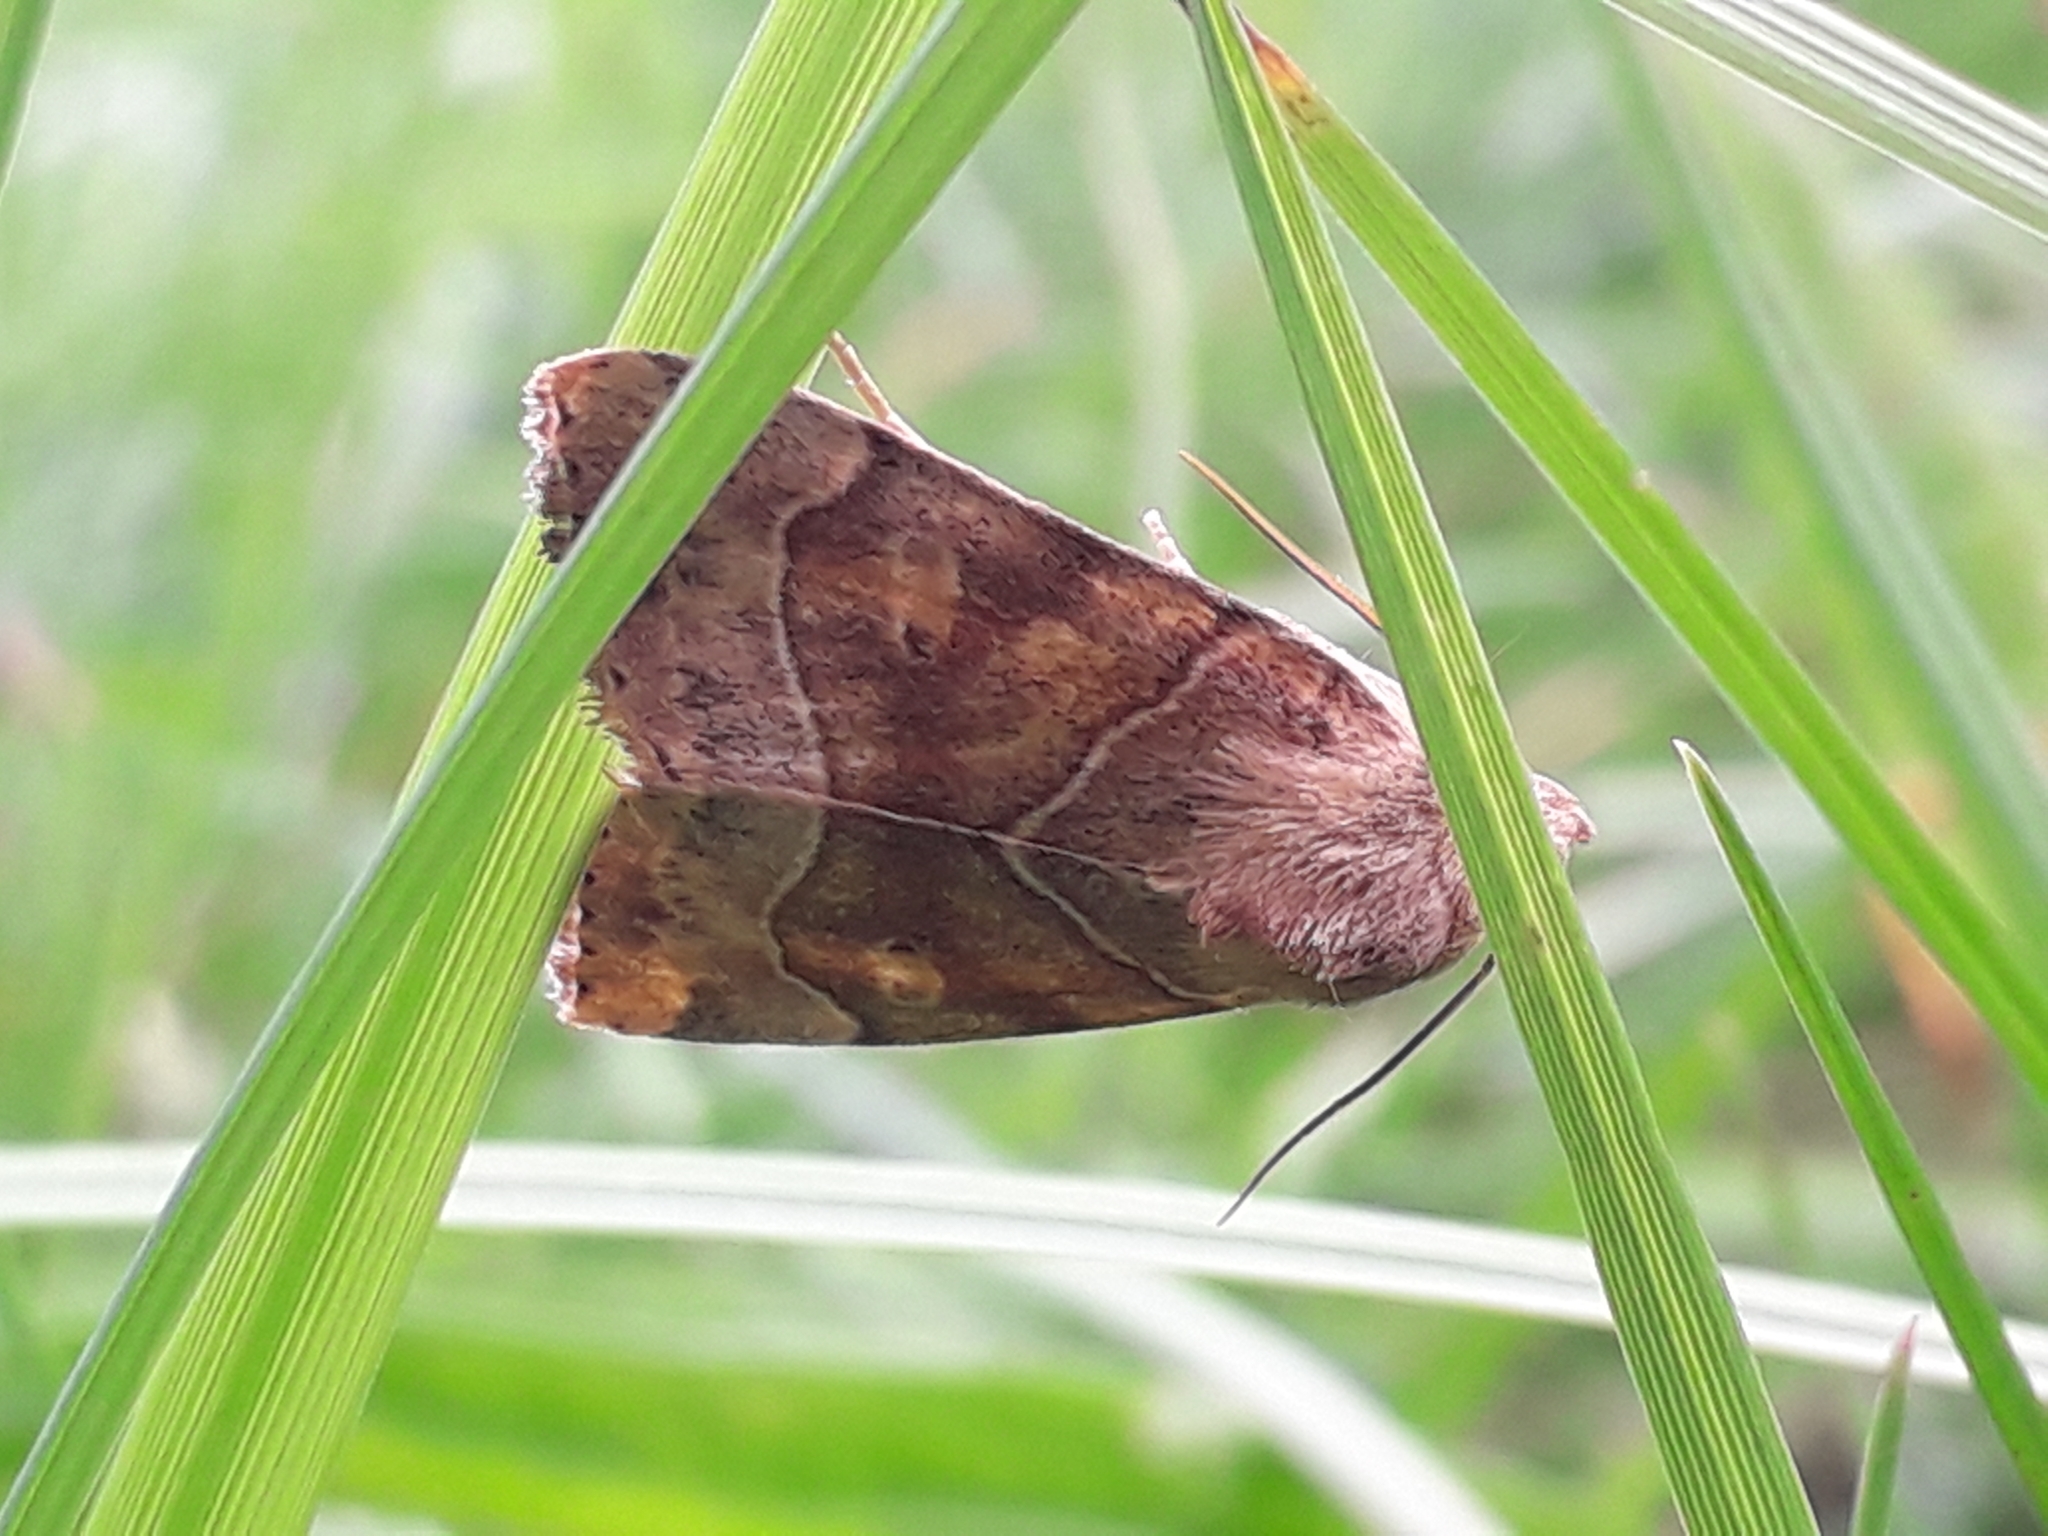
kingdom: Animalia
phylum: Arthropoda
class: Insecta
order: Lepidoptera
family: Noctuidae
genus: Cosmia
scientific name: Cosmia trapezina
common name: Dun-bar
